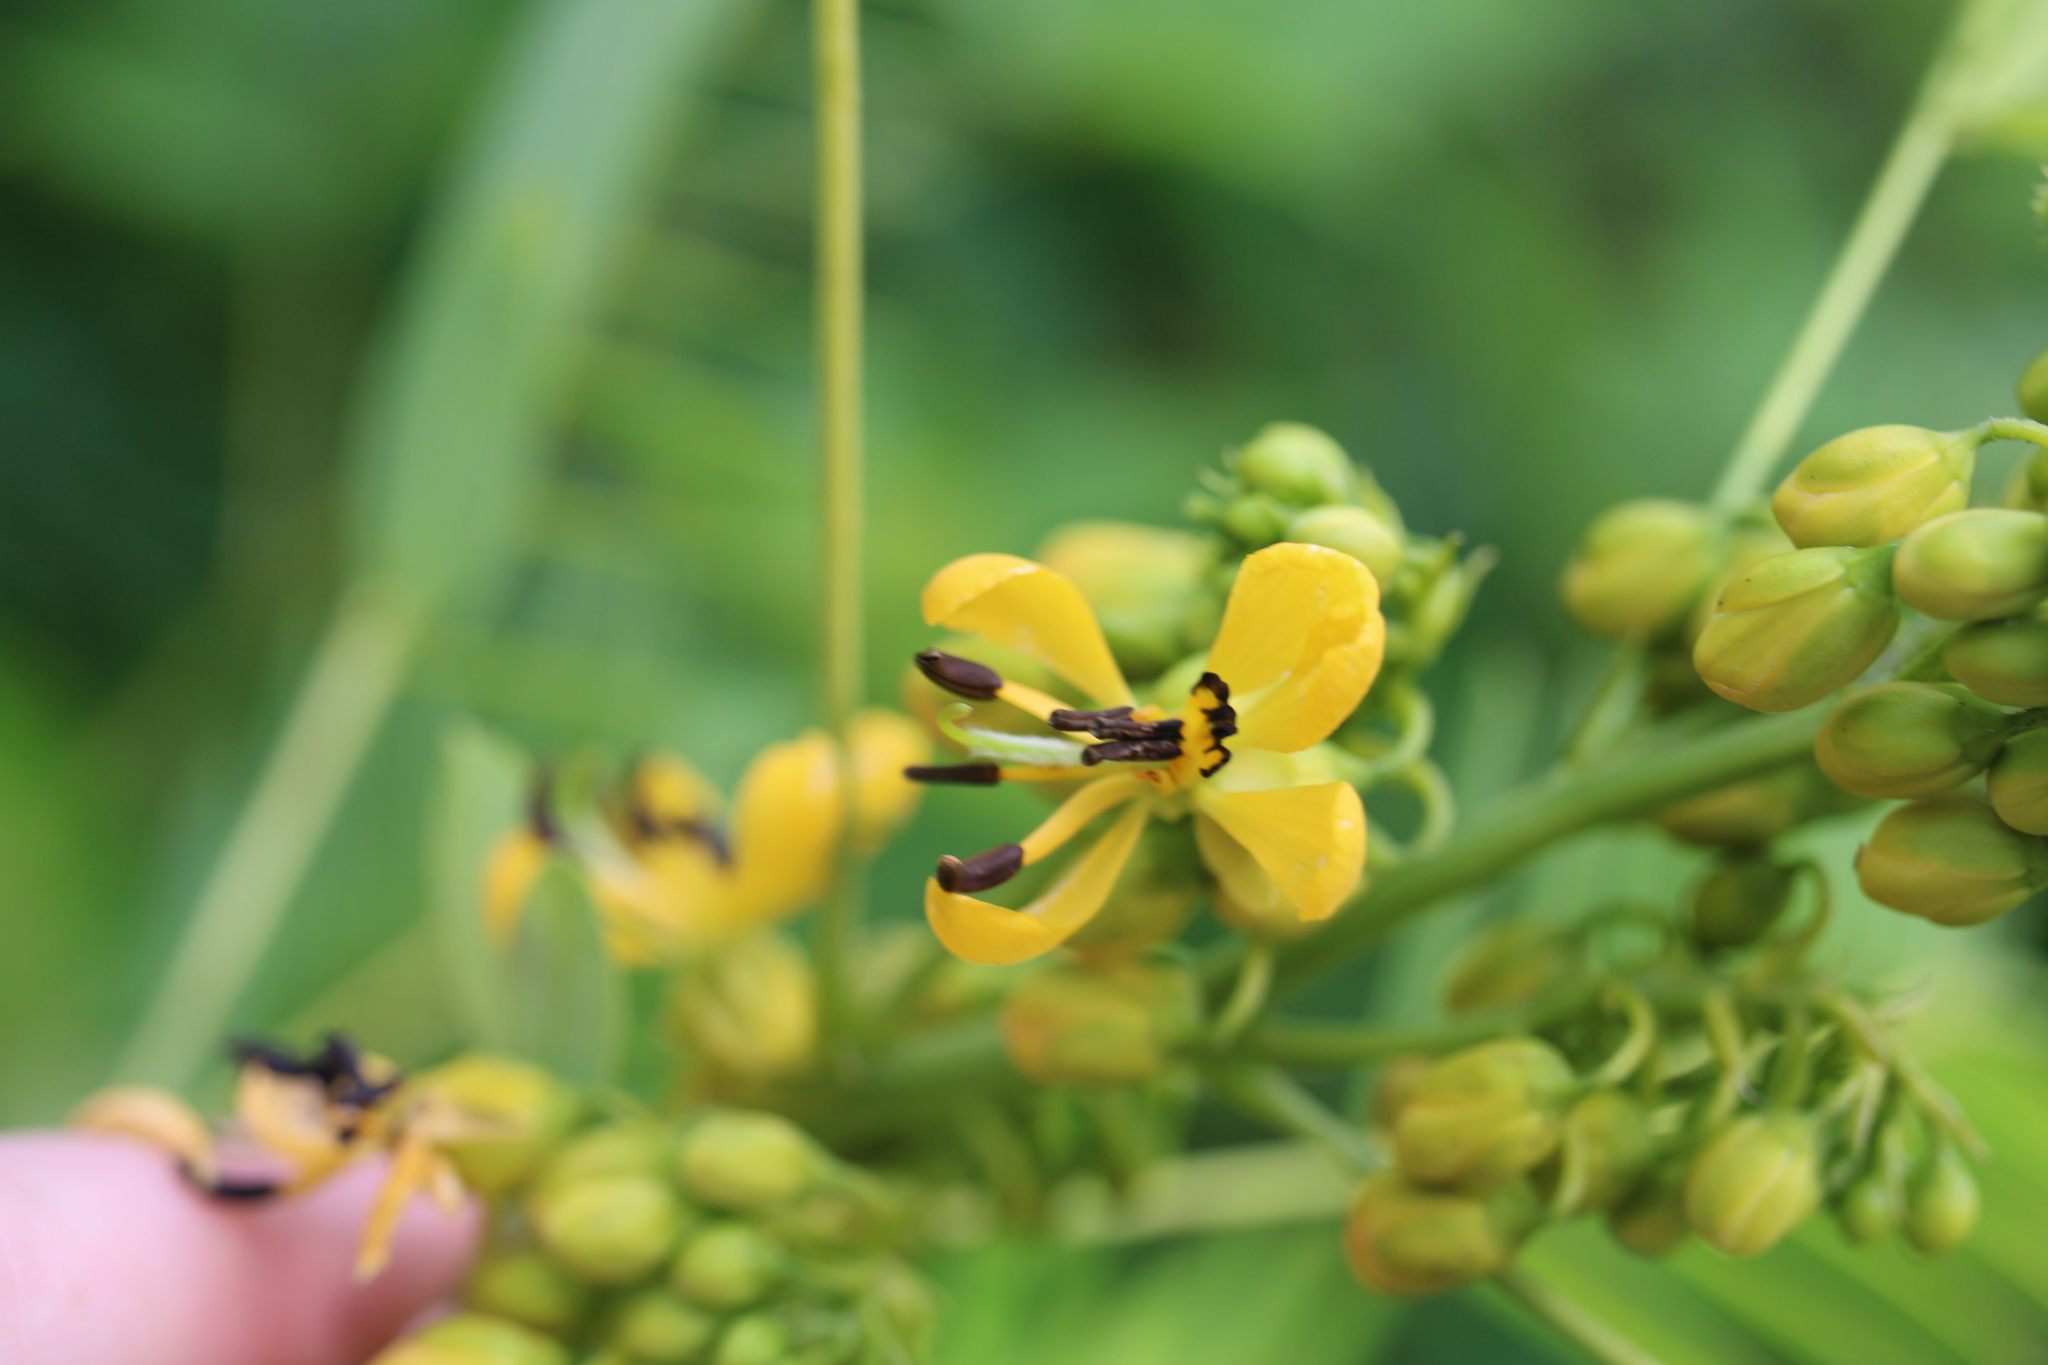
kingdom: Plantae
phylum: Tracheophyta
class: Magnoliopsida
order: Fabales
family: Fabaceae
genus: Senna
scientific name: Senna hebecarpa
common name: Wild senna
